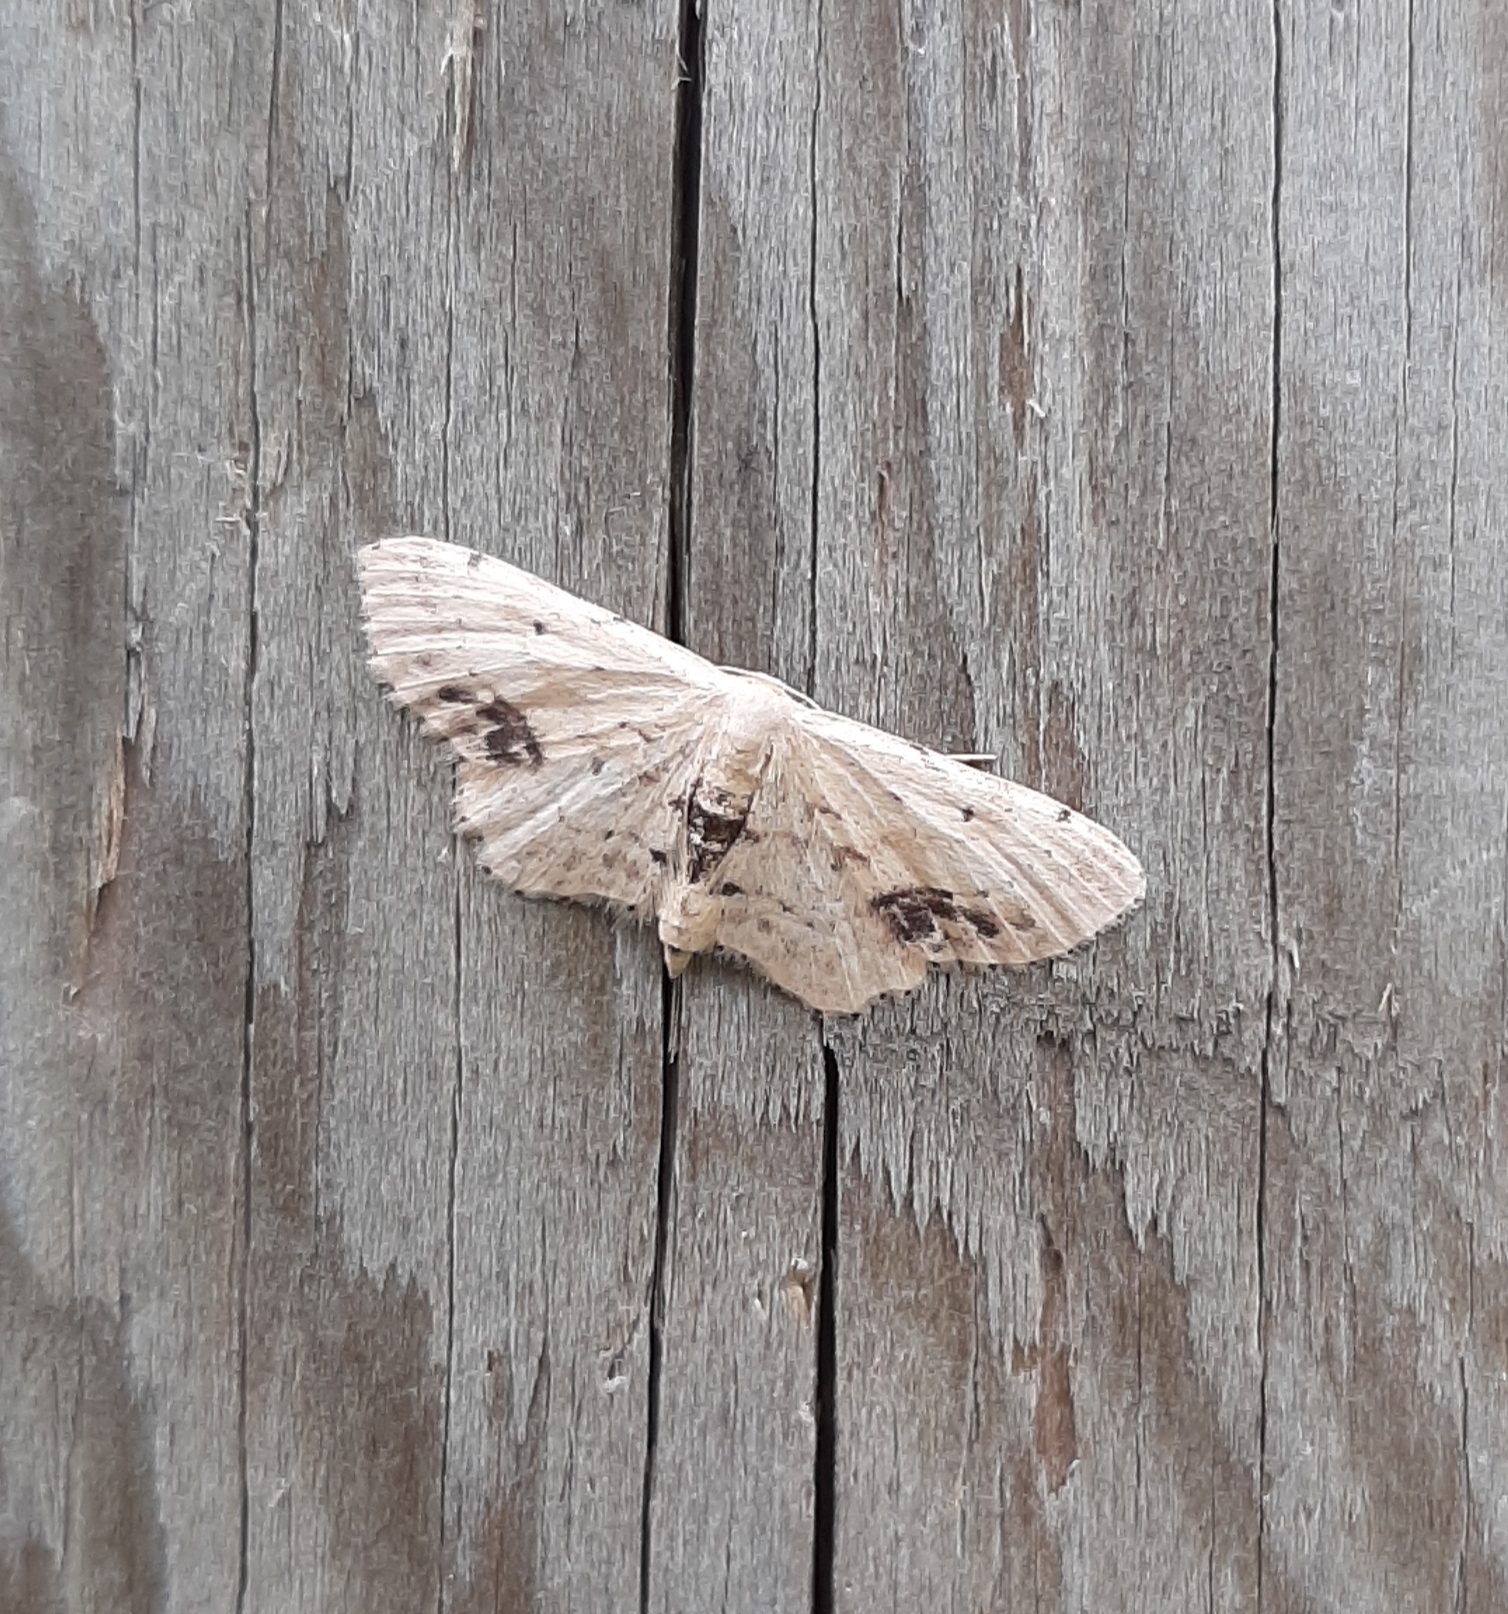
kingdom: Animalia
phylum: Arthropoda
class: Insecta
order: Lepidoptera
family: Geometridae
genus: Idaea
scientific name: Idaea dimidiata
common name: Single-dotted wave
